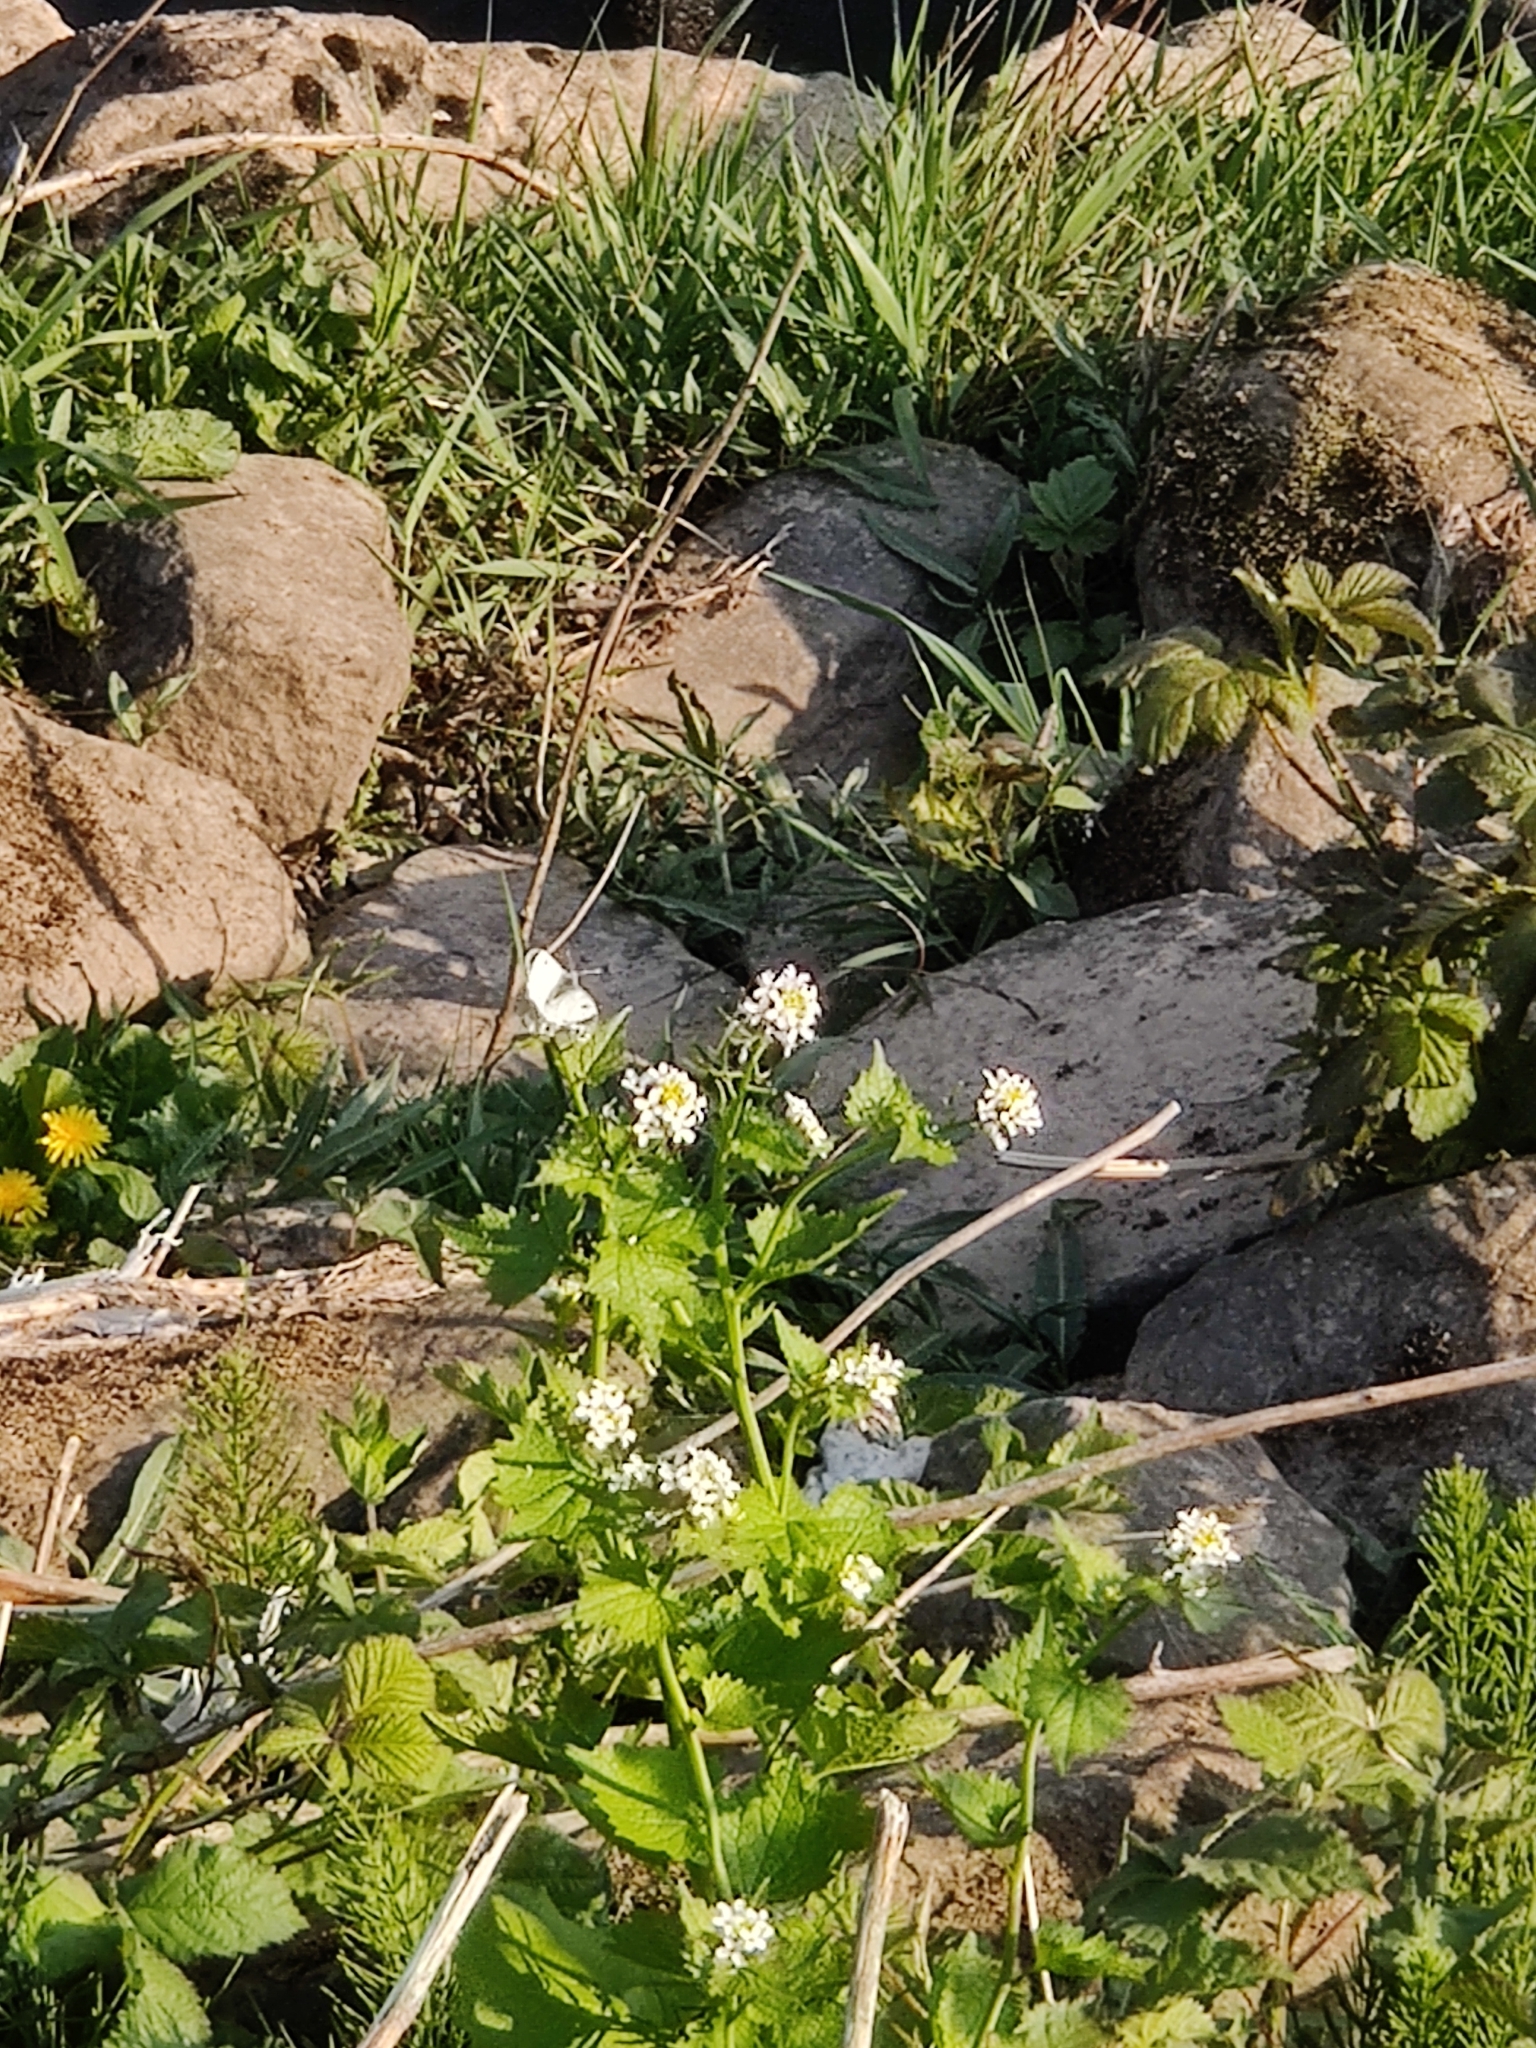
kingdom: Animalia
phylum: Arthropoda
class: Insecta
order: Lepidoptera
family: Pieridae
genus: Anthocharis
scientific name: Anthocharis cardamines
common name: Orange-tip
